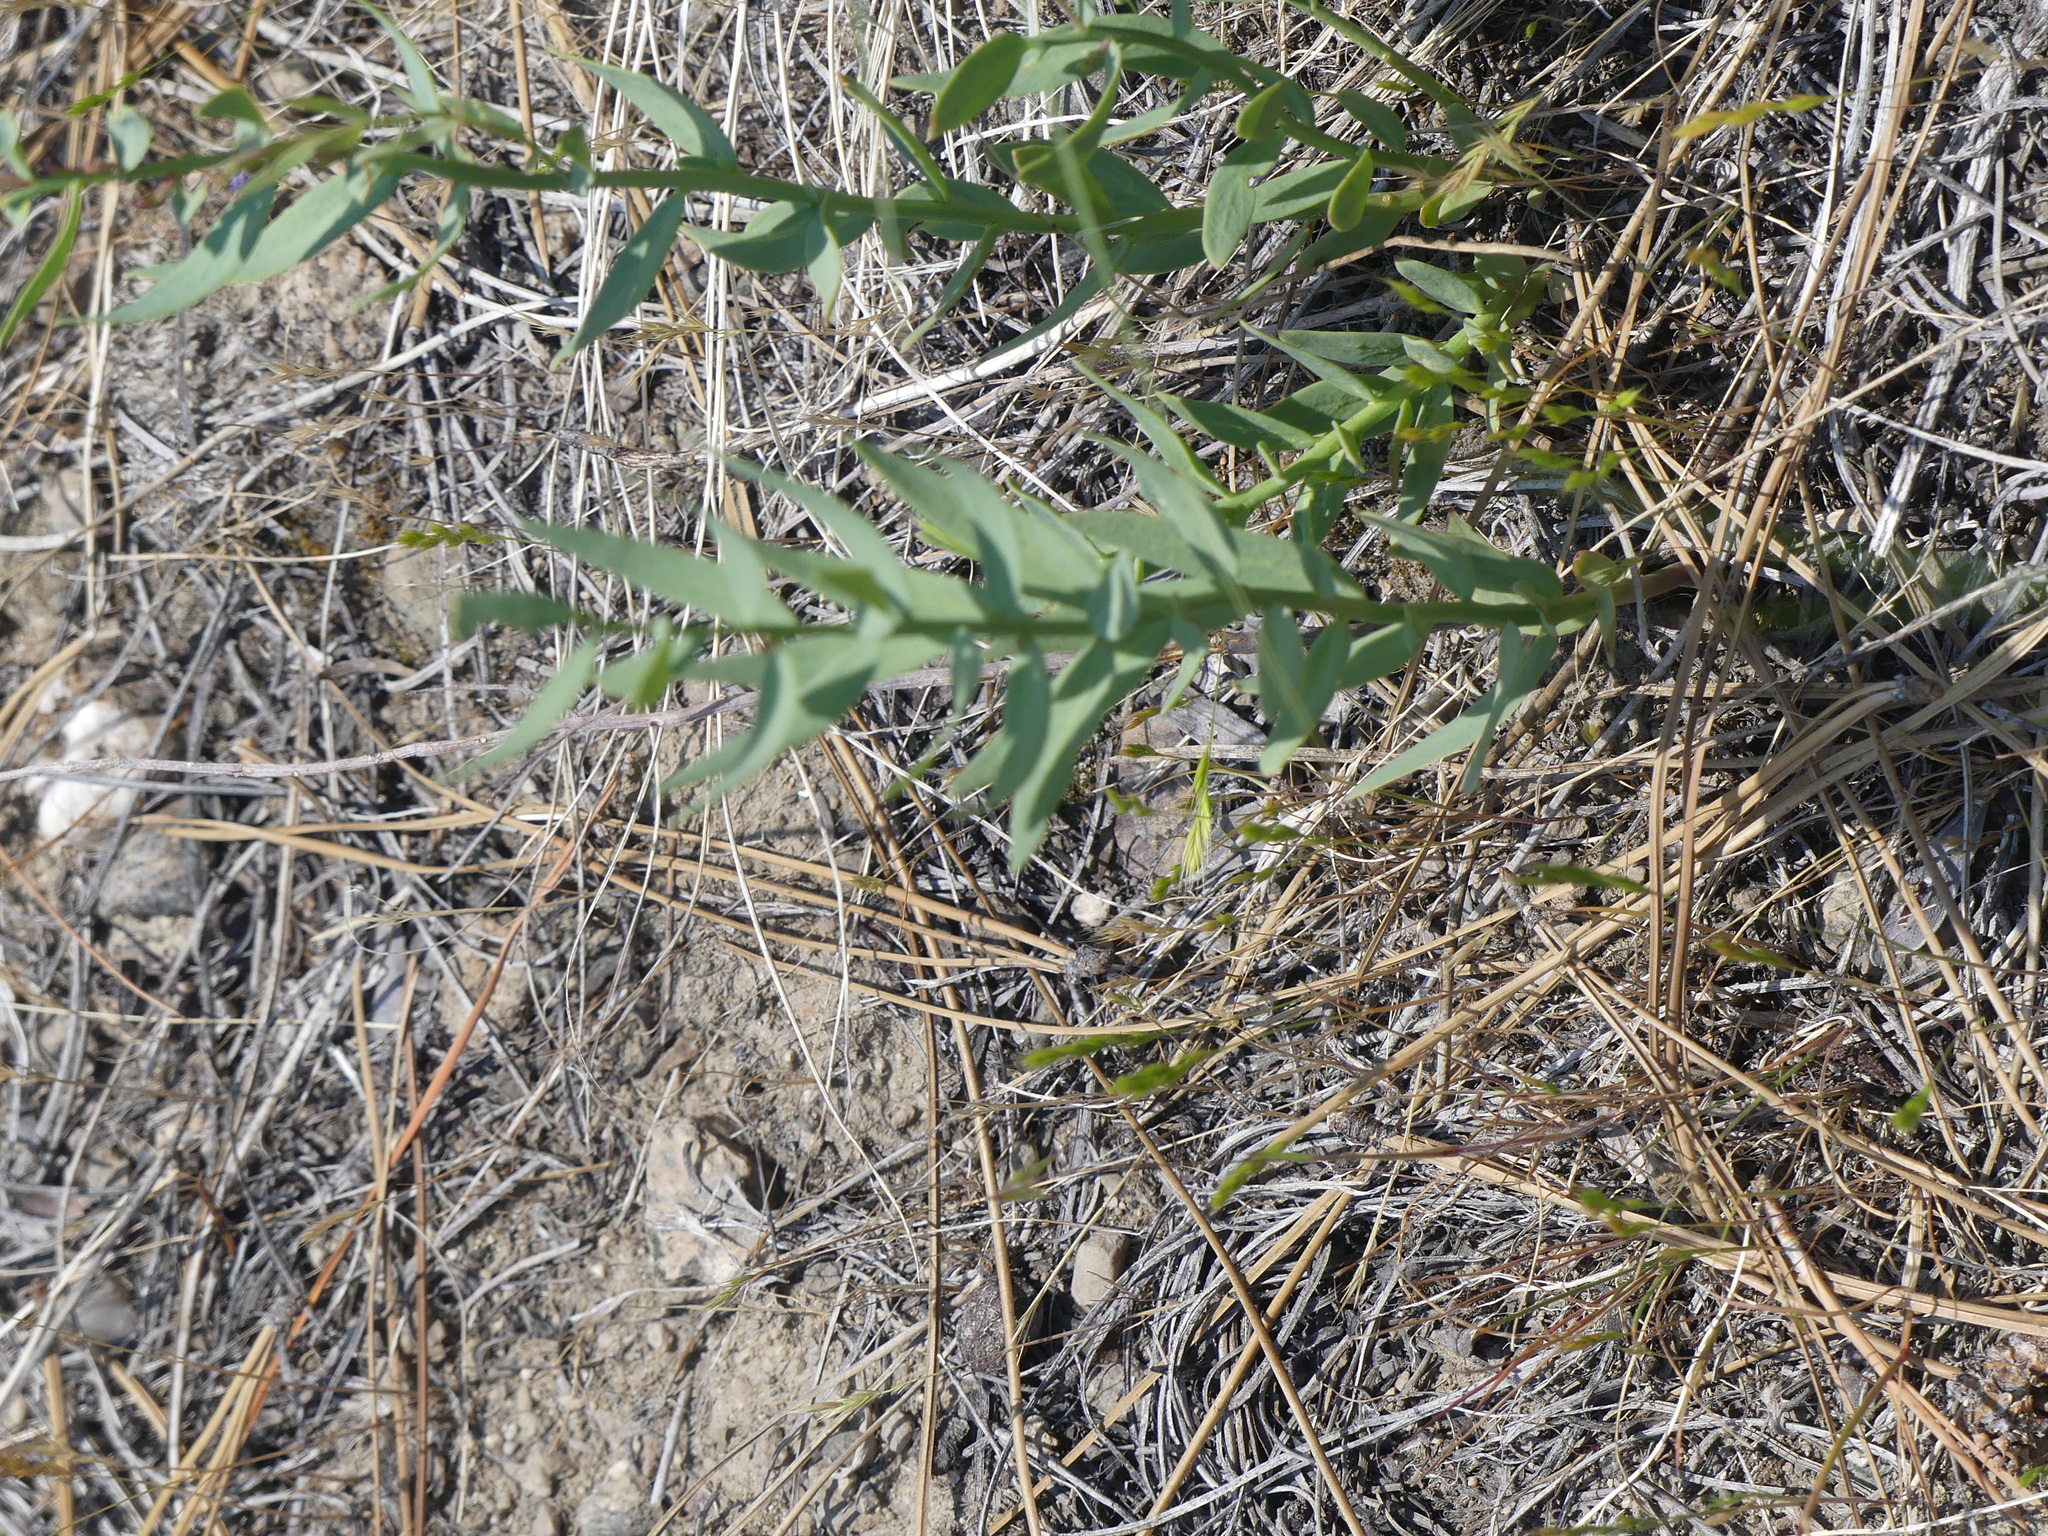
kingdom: Plantae
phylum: Tracheophyta
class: Magnoliopsida
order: Santalales
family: Comandraceae
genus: Comandra
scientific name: Comandra umbellata
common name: Bastard toadflax
